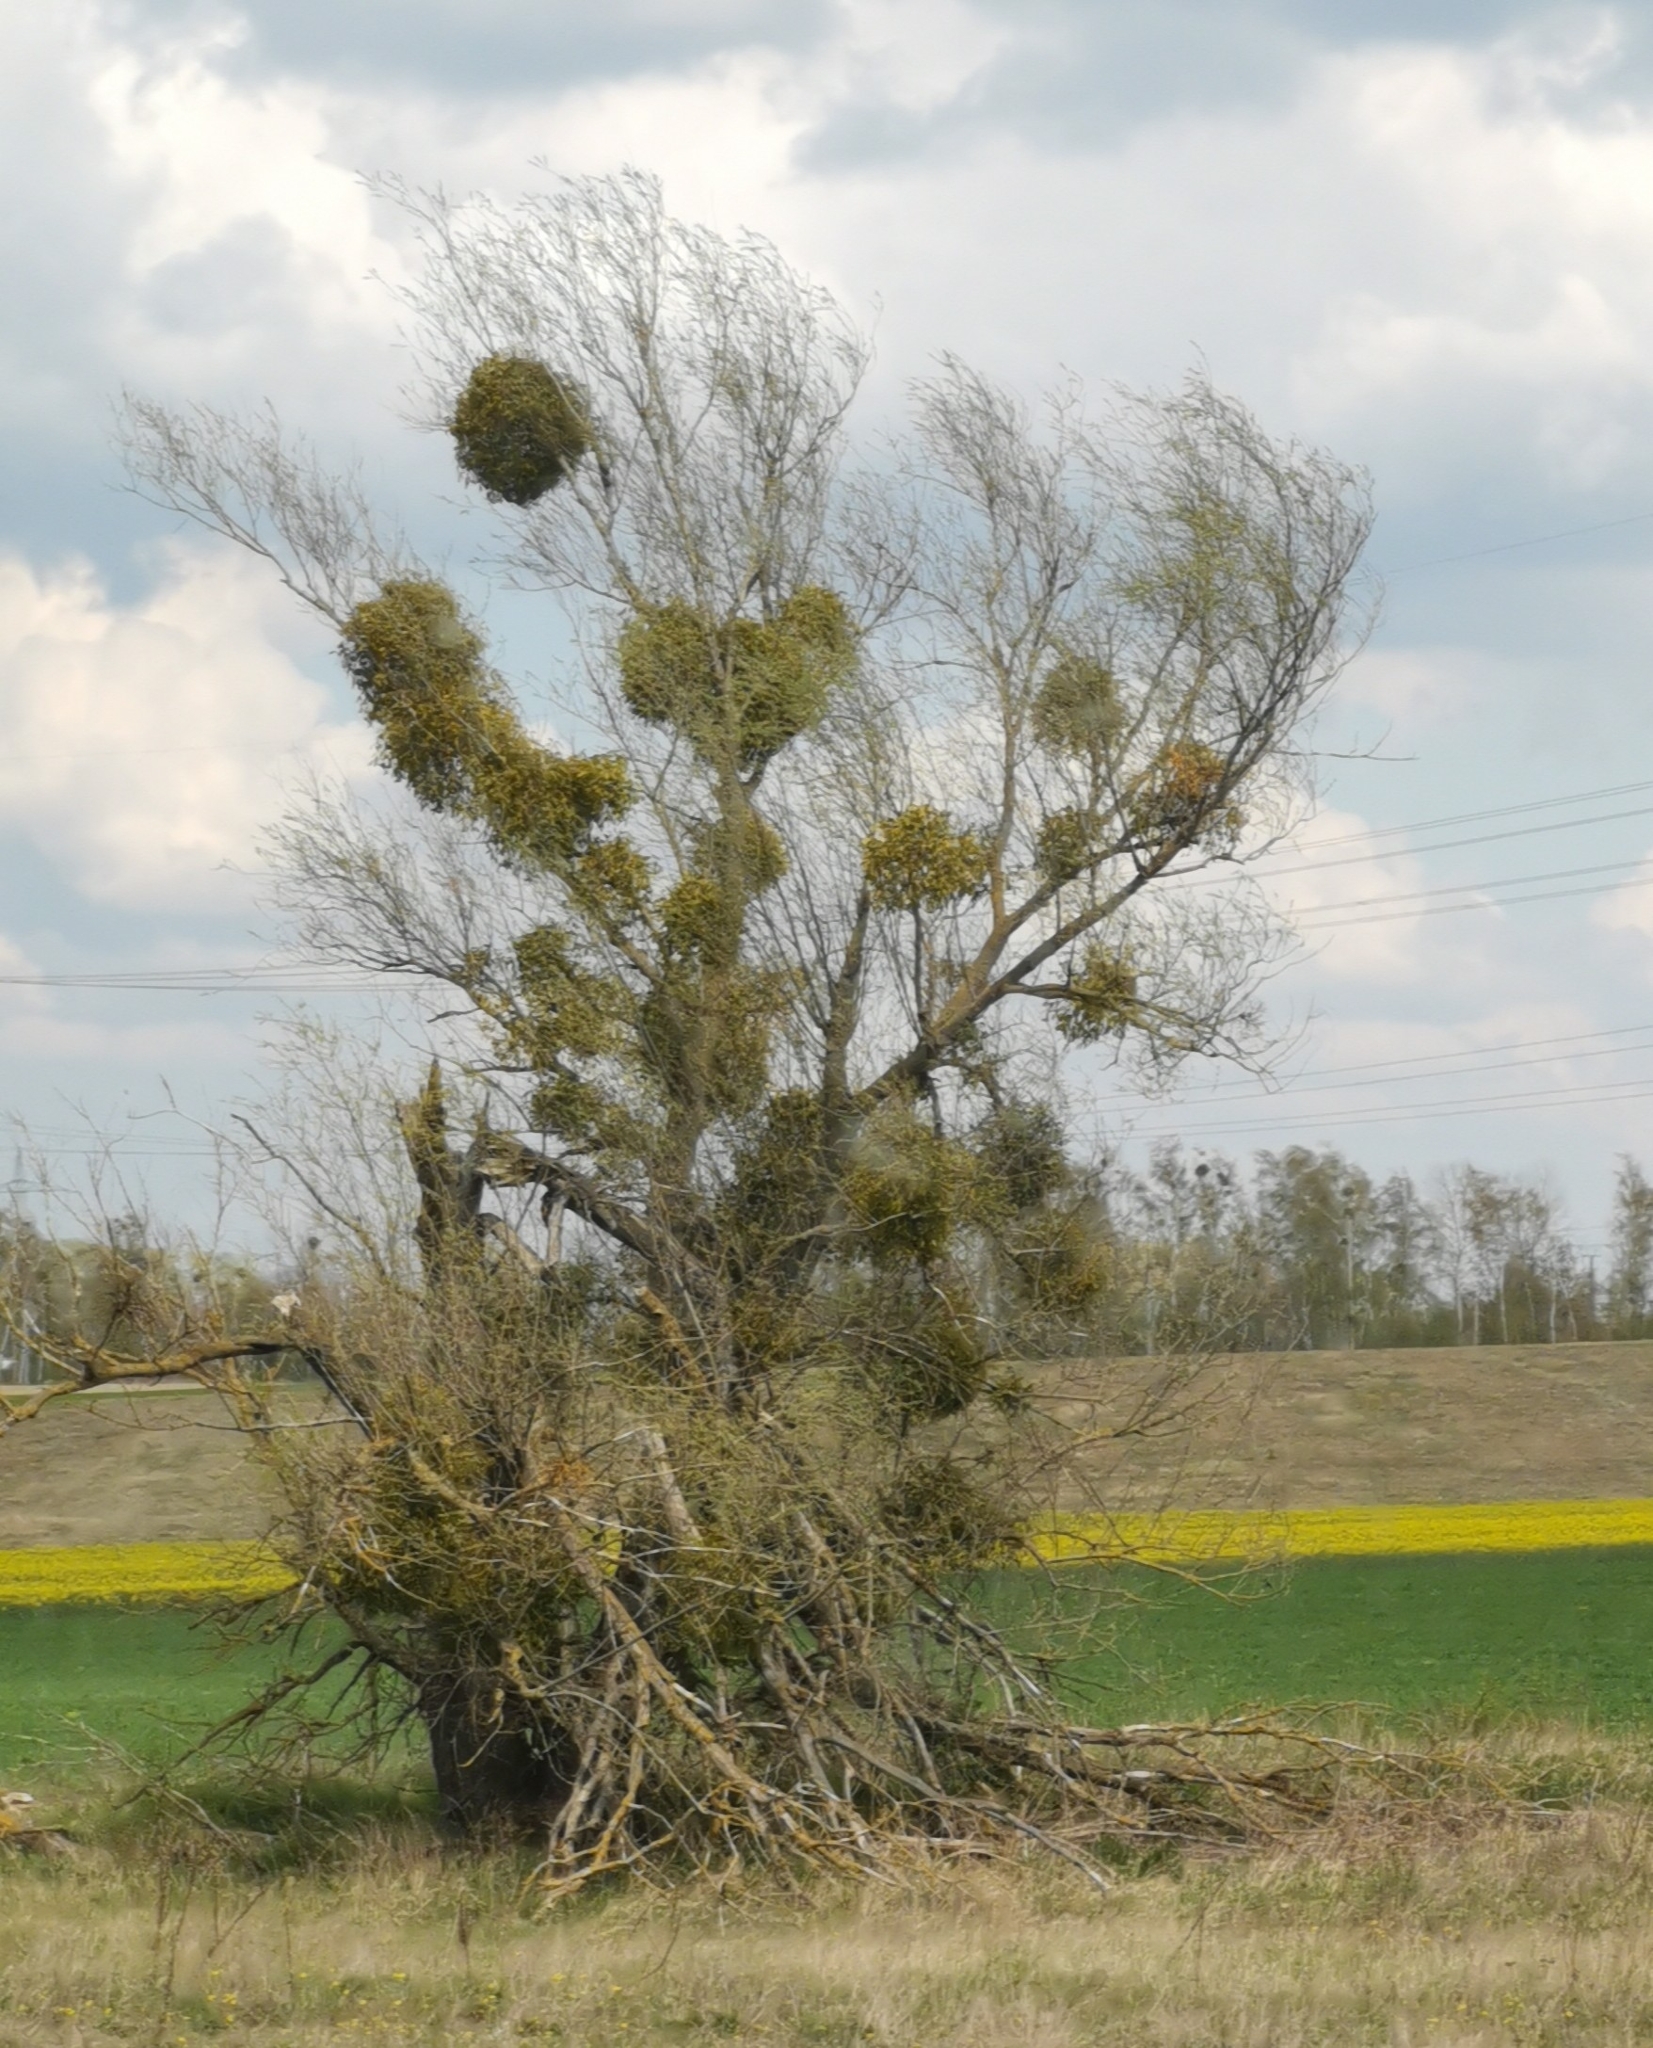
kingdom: Plantae
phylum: Tracheophyta
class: Magnoliopsida
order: Santalales
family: Viscaceae
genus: Viscum
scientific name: Viscum album
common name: Mistletoe
